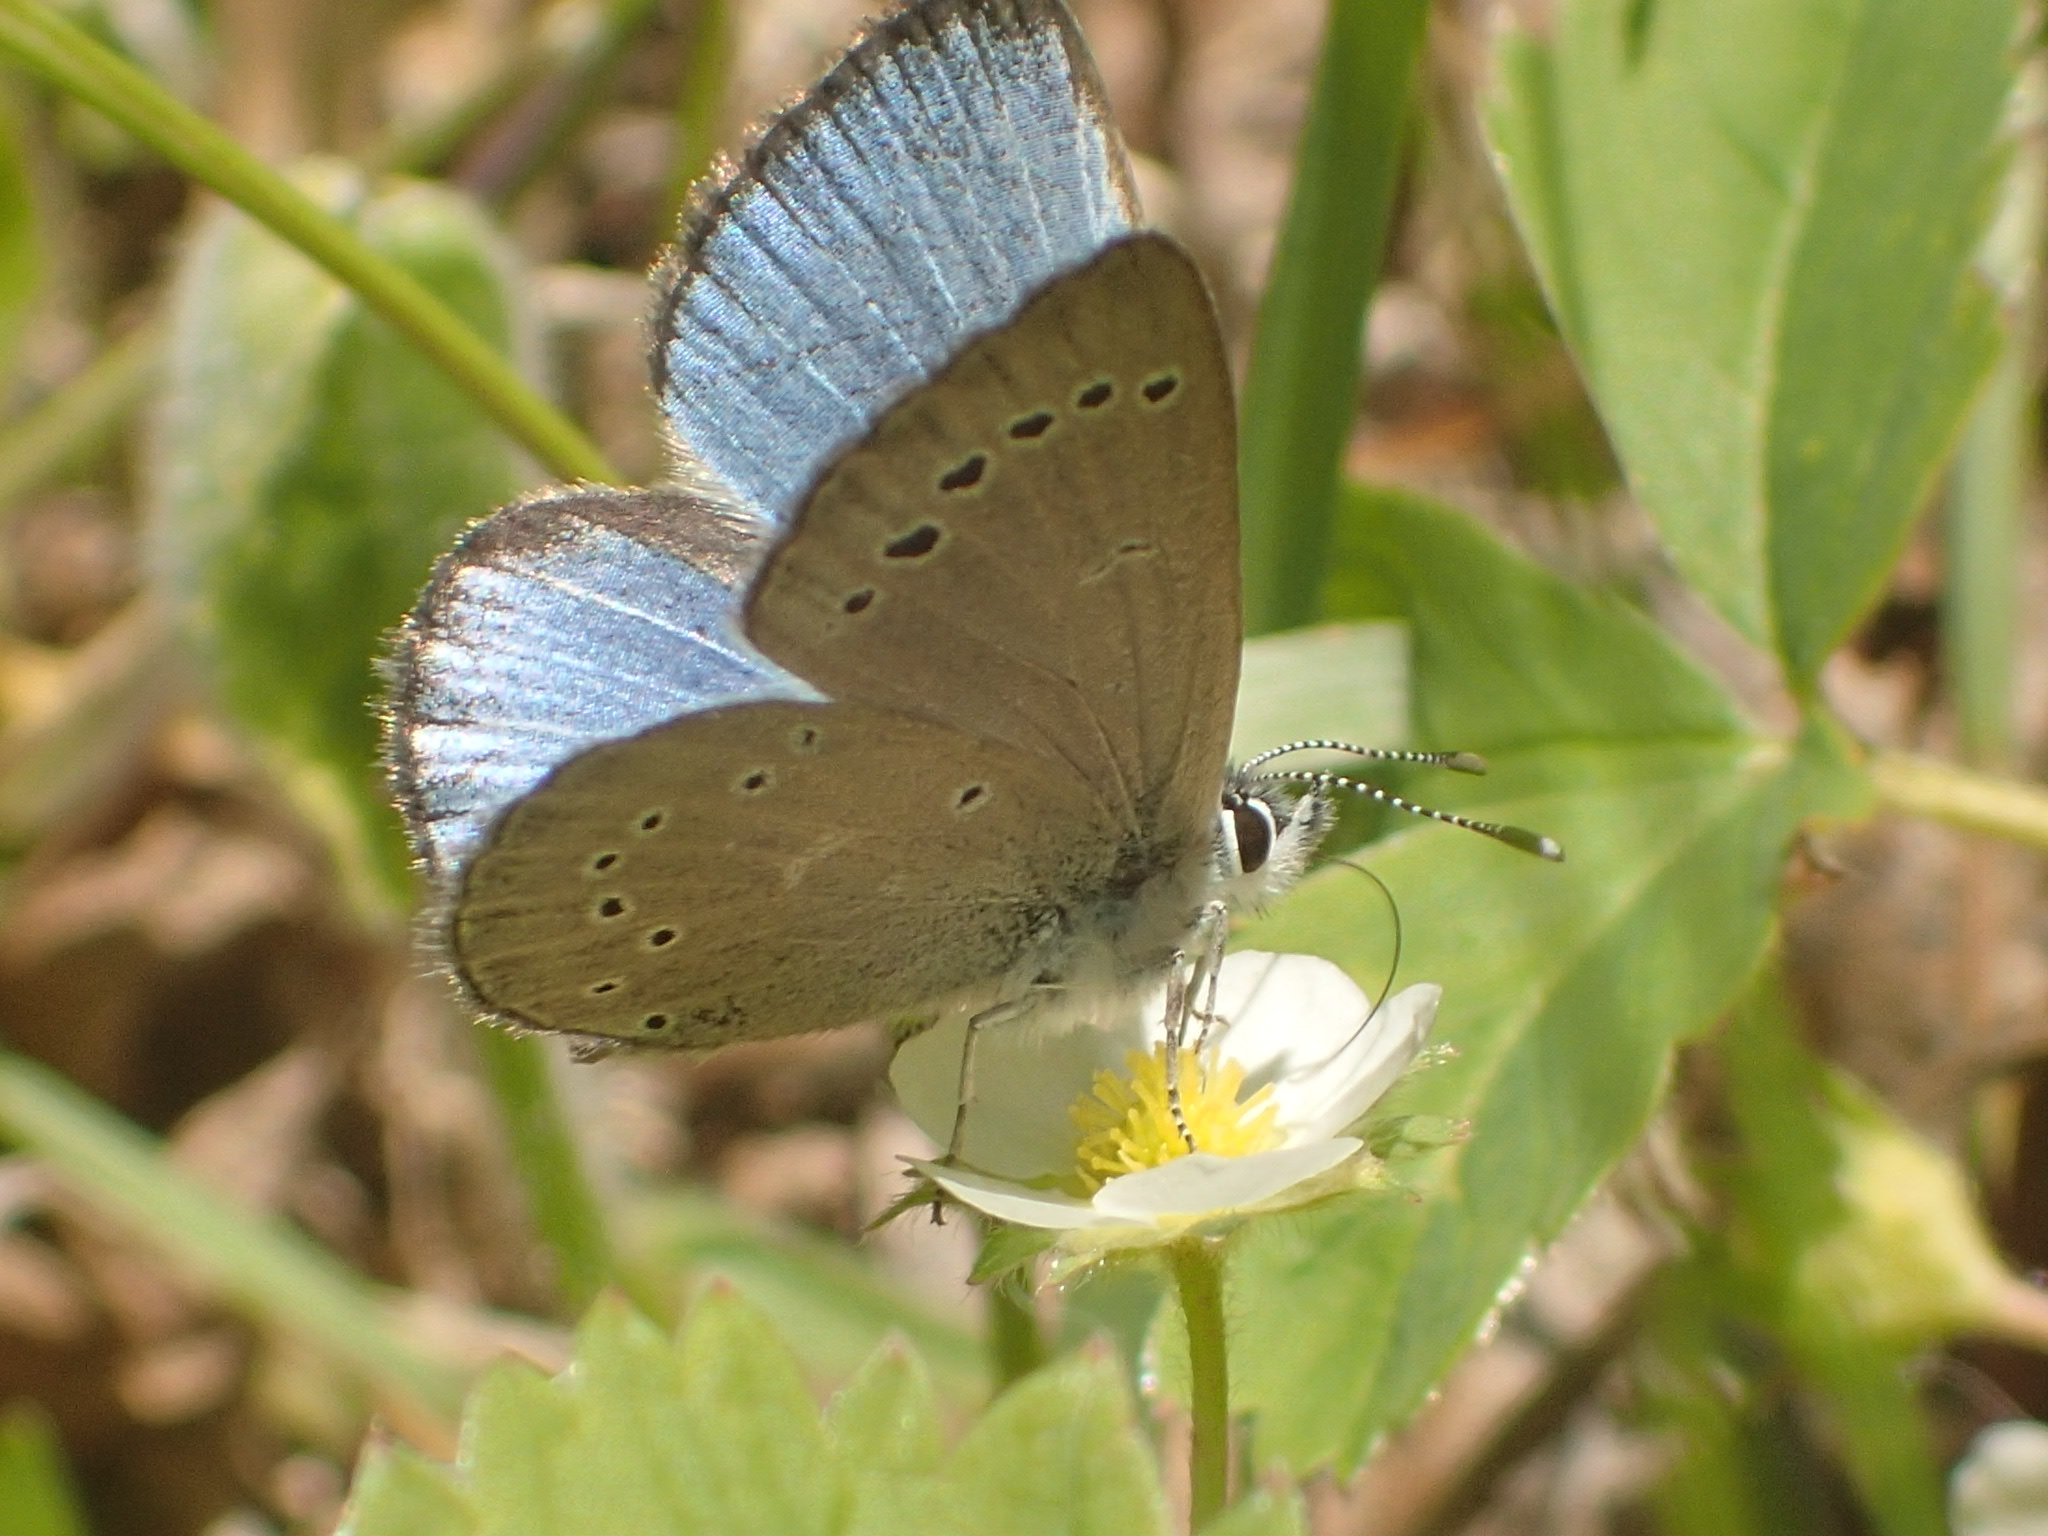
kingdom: Animalia
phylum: Arthropoda
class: Insecta
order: Lepidoptera
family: Lycaenidae
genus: Glaucopsyche
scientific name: Glaucopsyche lygdamus
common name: Silvery blue
